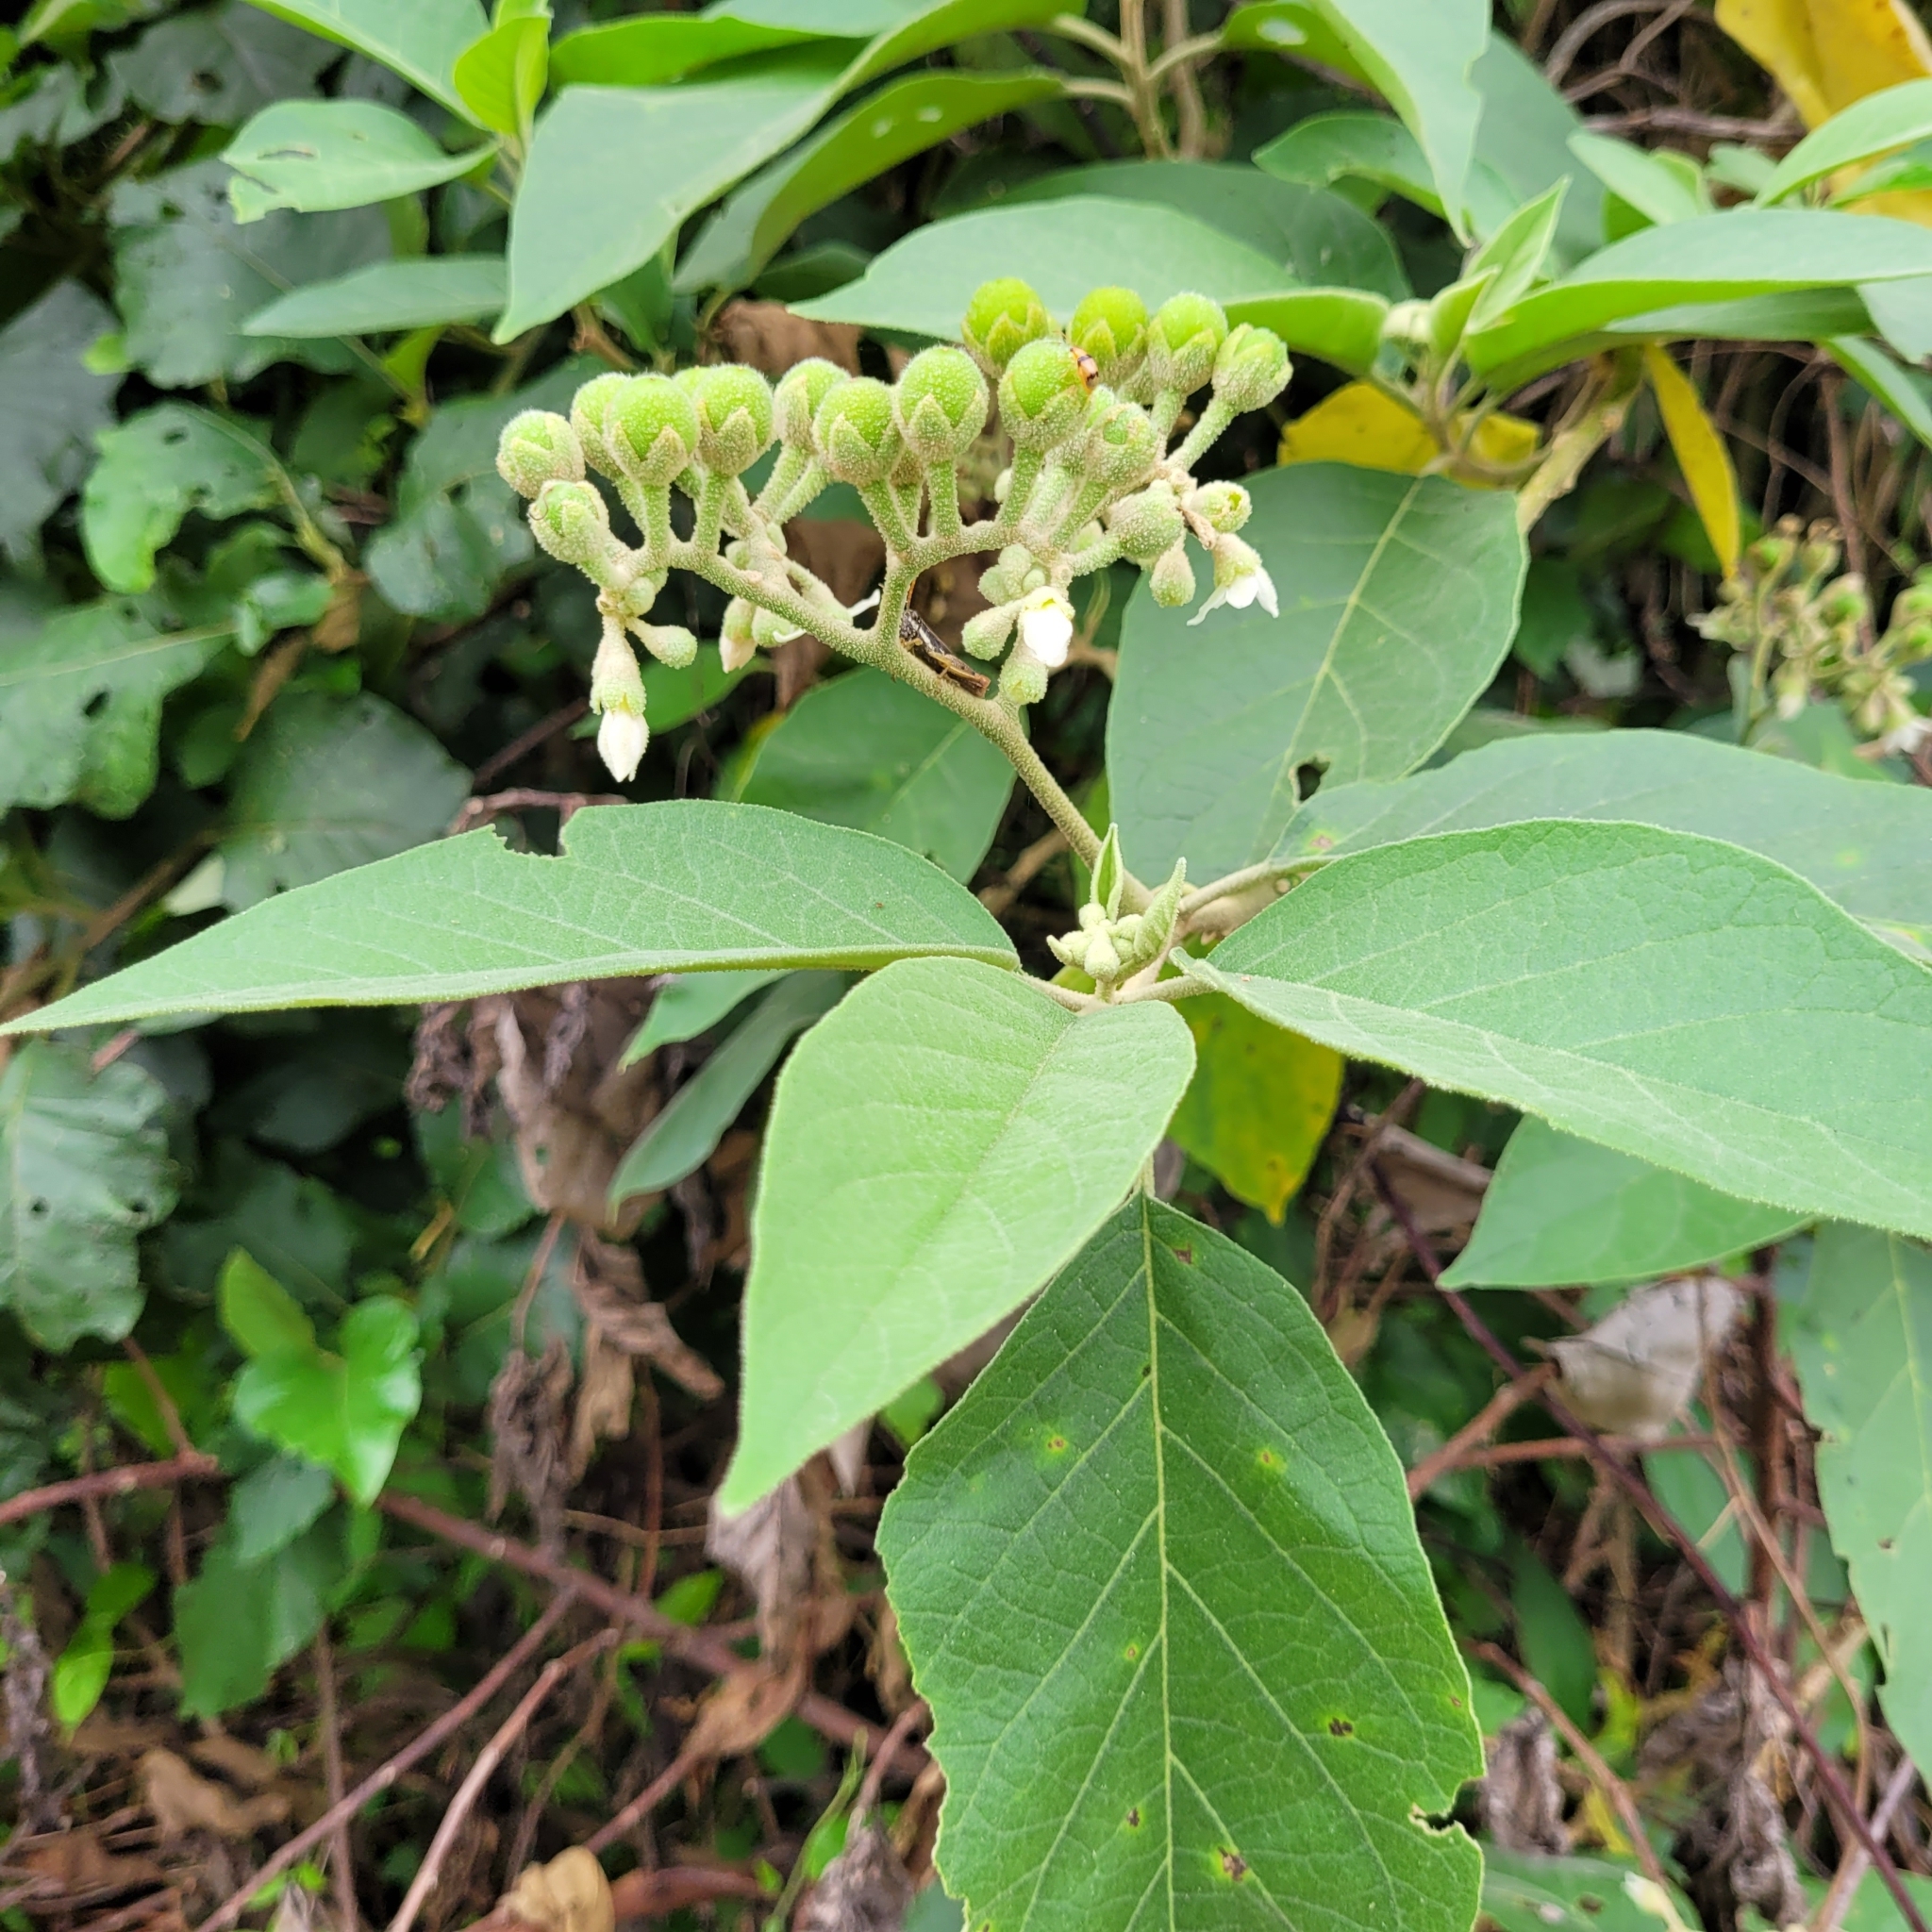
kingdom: Plantae
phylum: Tracheophyta
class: Magnoliopsida
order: Solanales
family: Solanaceae
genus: Solanum
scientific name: Solanum erianthum
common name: Tobacco-tree
